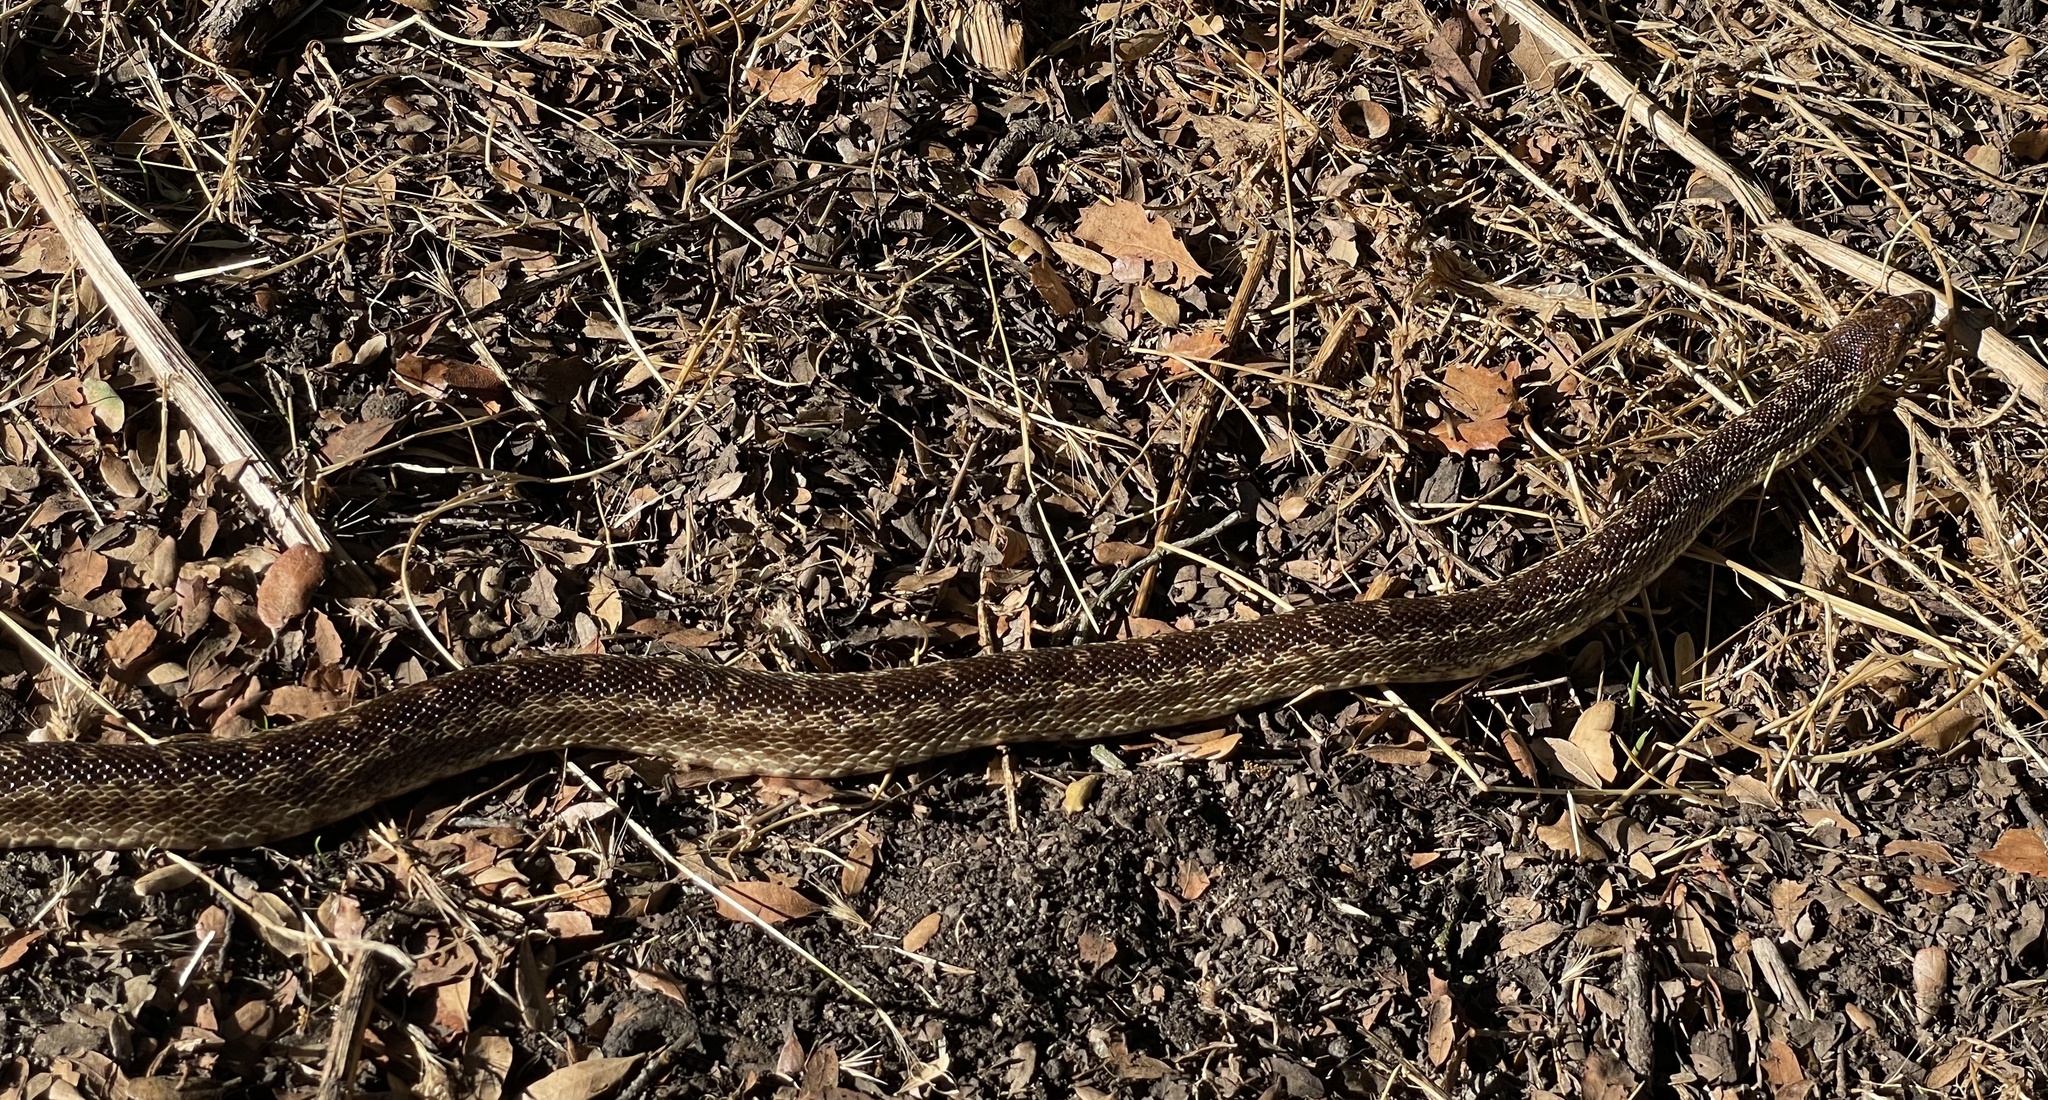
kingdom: Animalia
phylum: Chordata
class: Squamata
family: Colubridae
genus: Pituophis
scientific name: Pituophis catenifer
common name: Gopher snake
